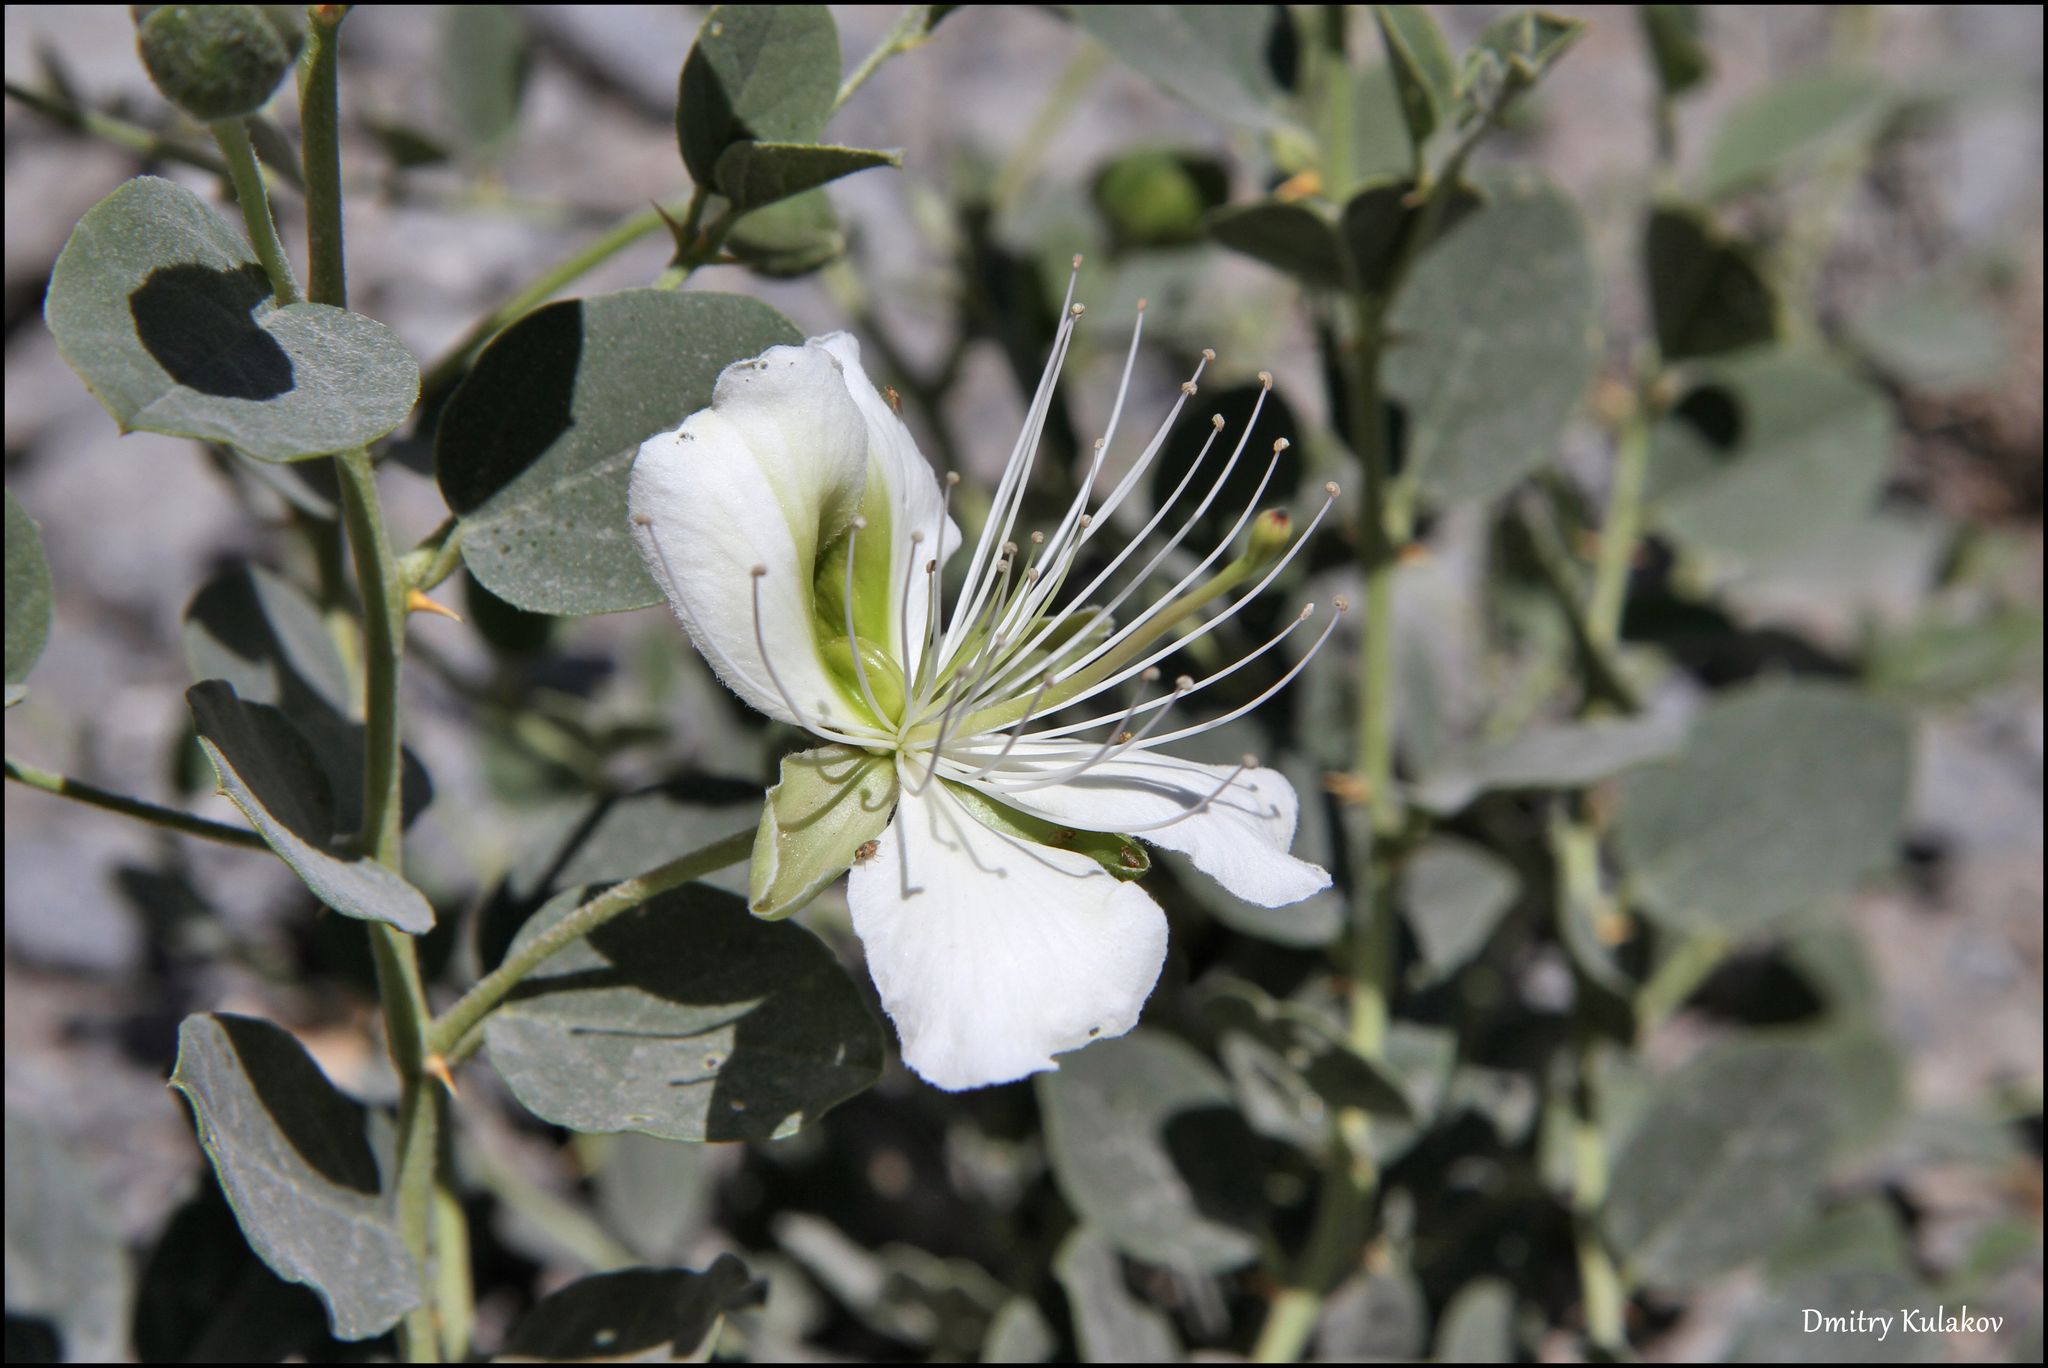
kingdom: Plantae
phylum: Tracheophyta
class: Magnoliopsida
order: Brassicales
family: Capparaceae
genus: Capparis
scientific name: Capparis spinosa
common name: Caper
